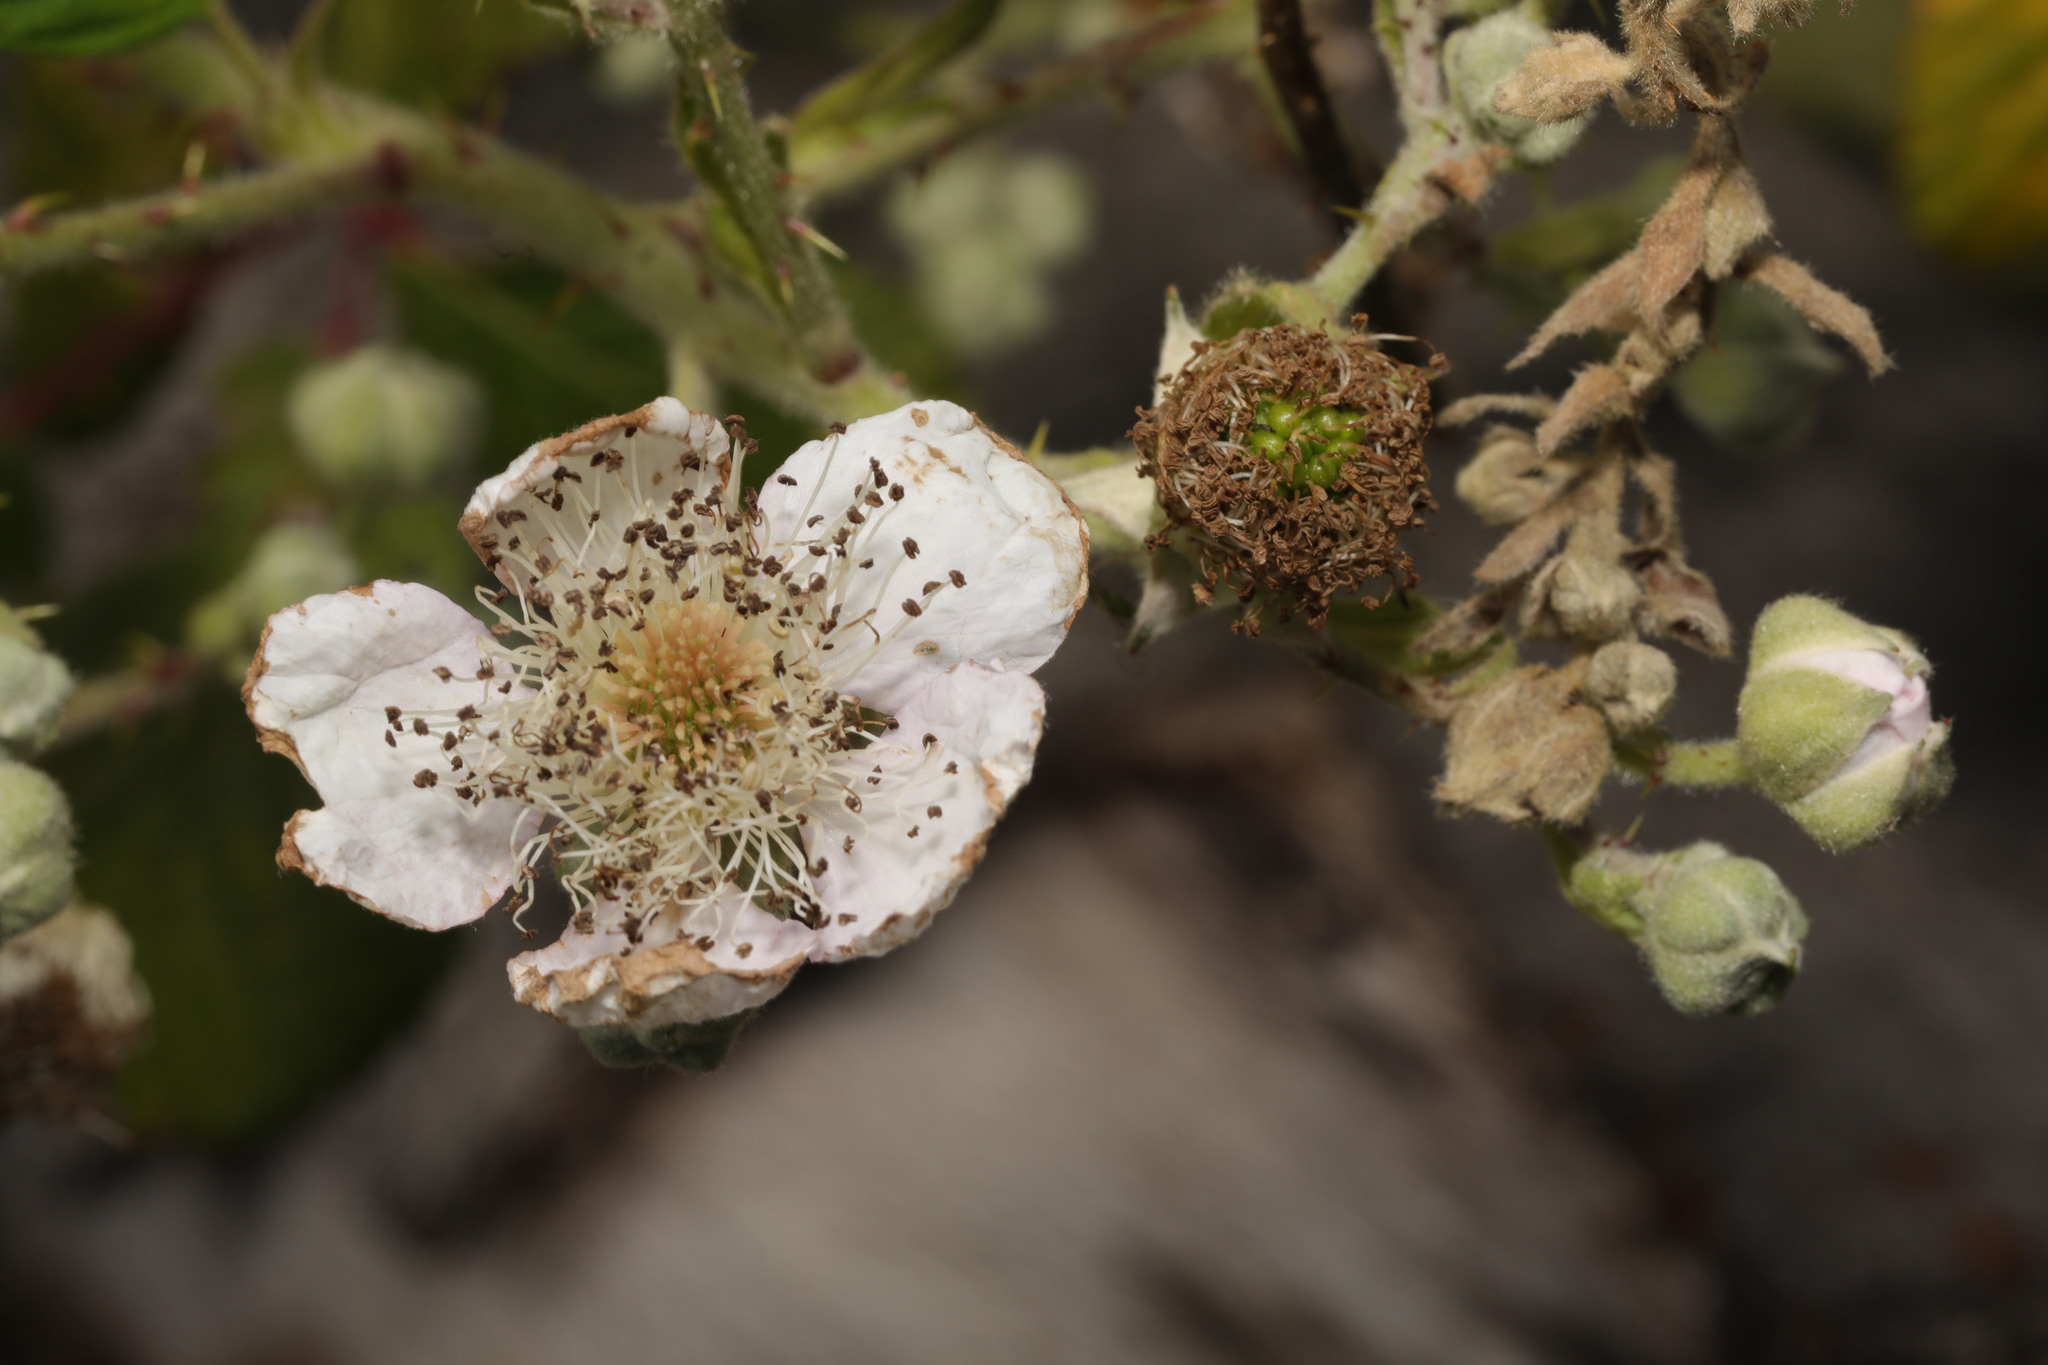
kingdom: Plantae
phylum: Tracheophyta
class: Magnoliopsida
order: Rosales
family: Rosaceae
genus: Rubus
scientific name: Rubus armeniacus
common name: Himalayan blackberry
